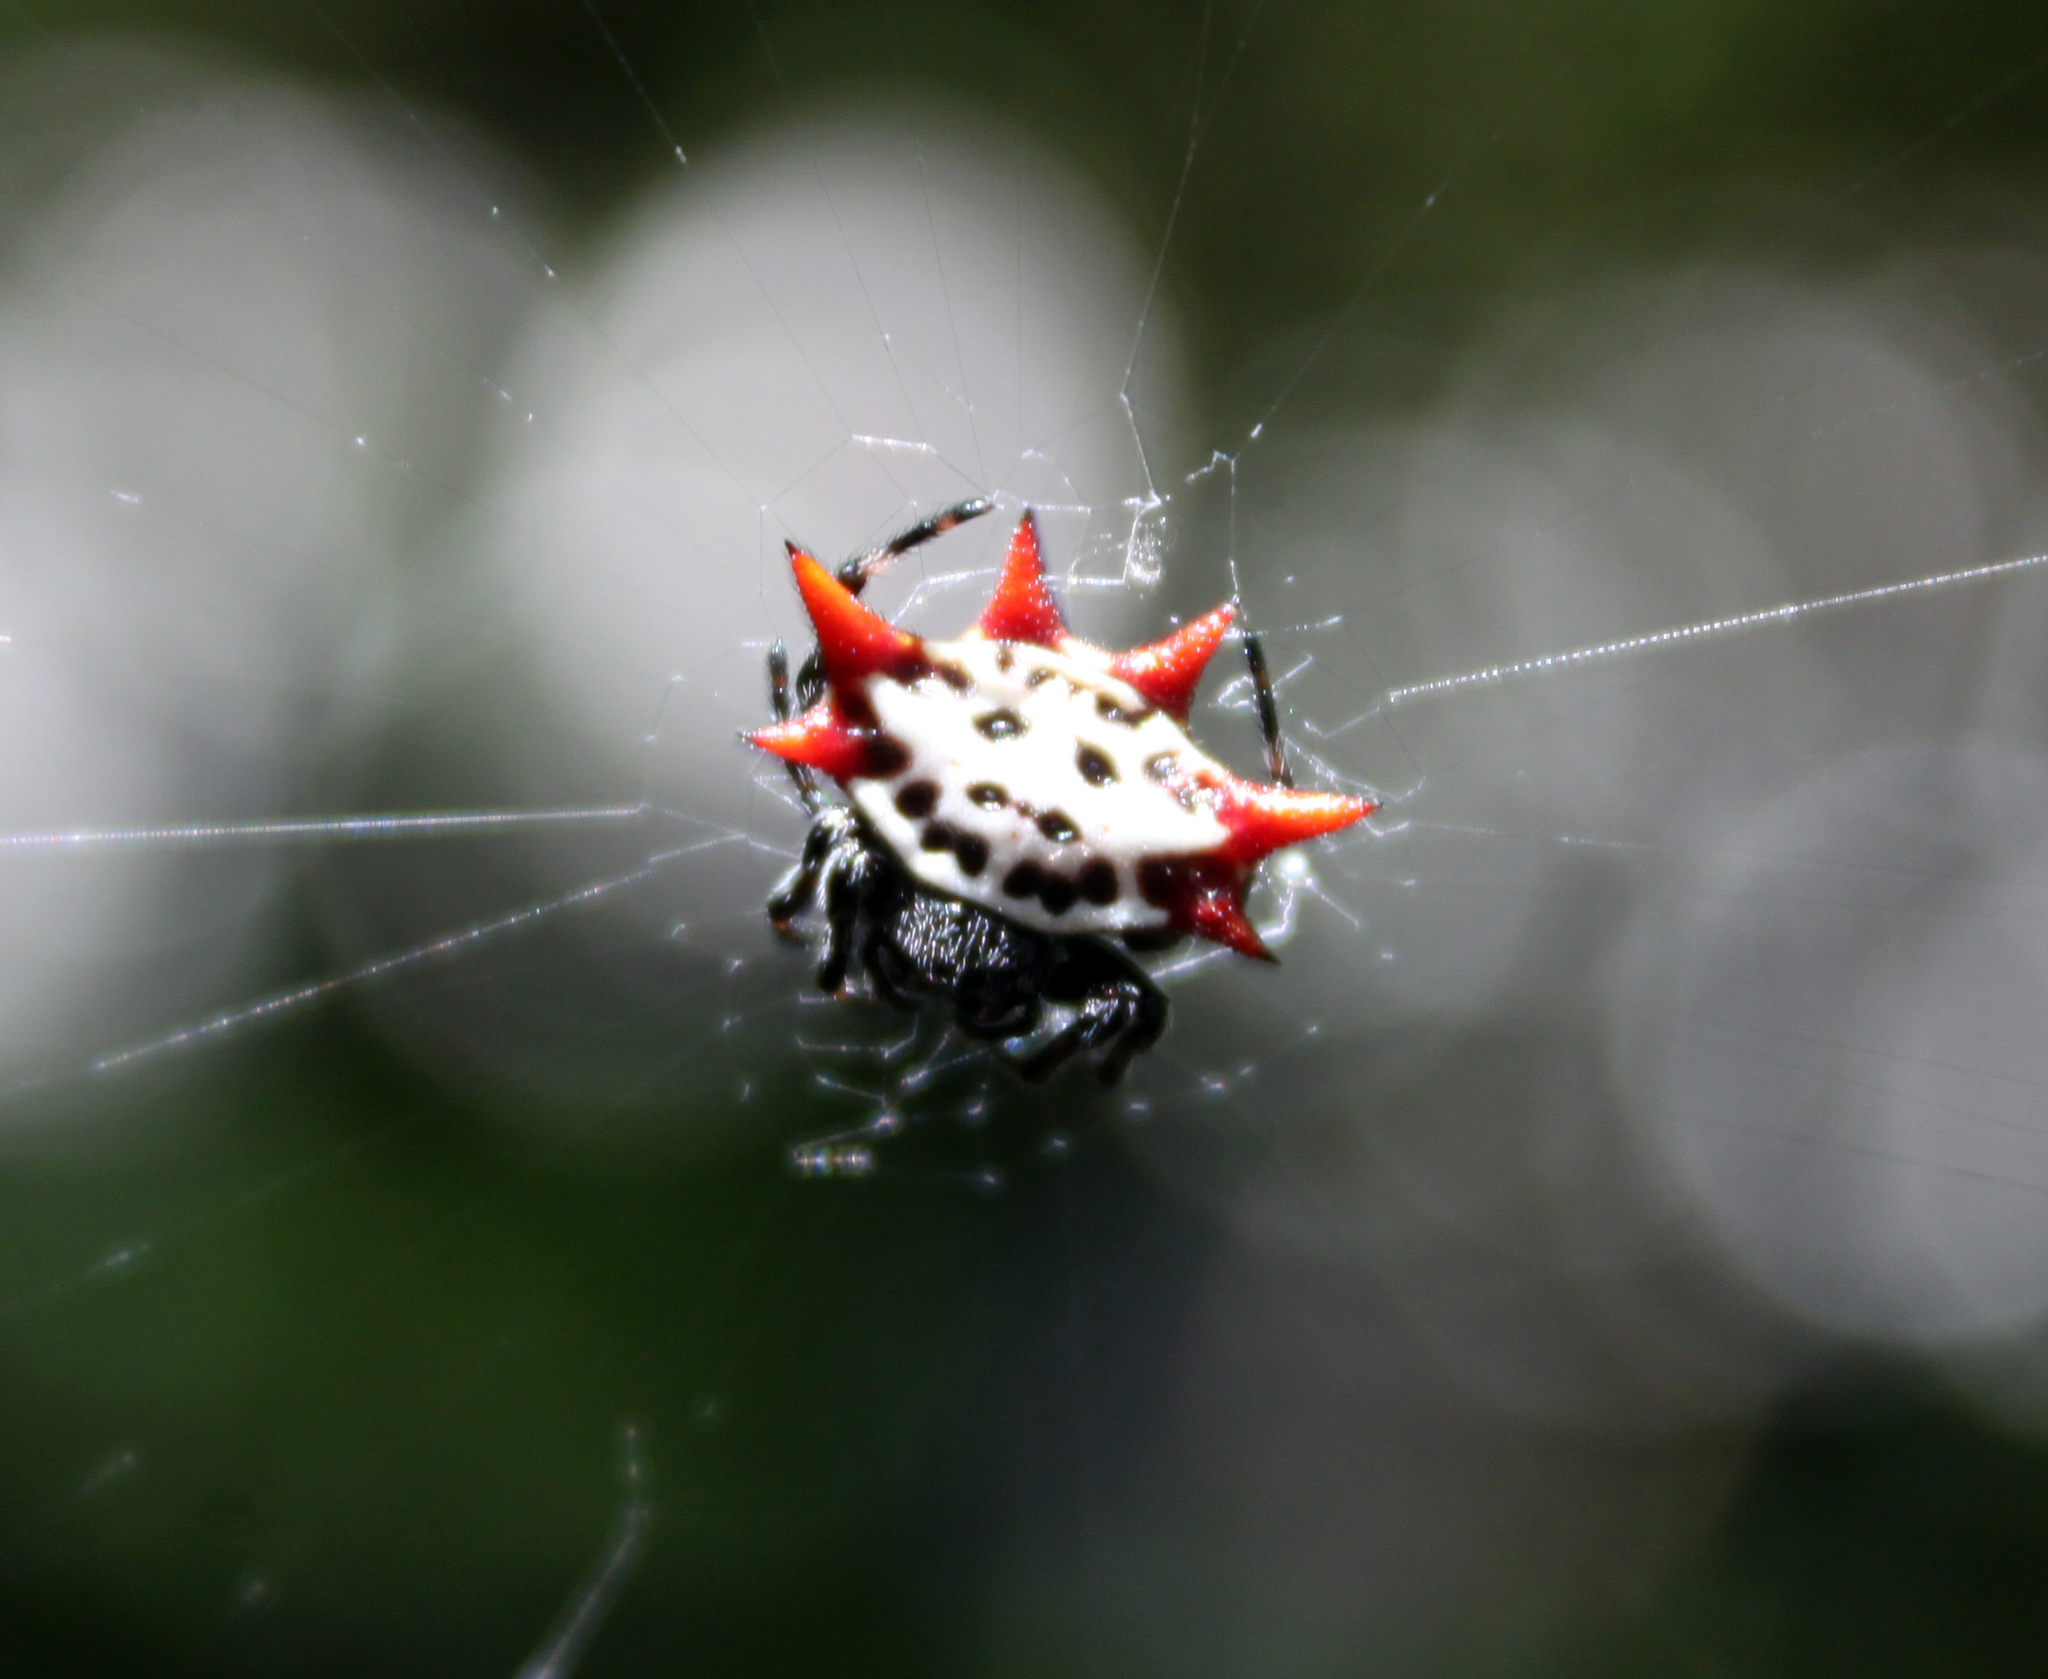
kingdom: Animalia
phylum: Arthropoda
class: Arachnida
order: Araneae
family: Araneidae
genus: Gasteracantha
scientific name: Gasteracantha cancriformis
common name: Orb weavers
